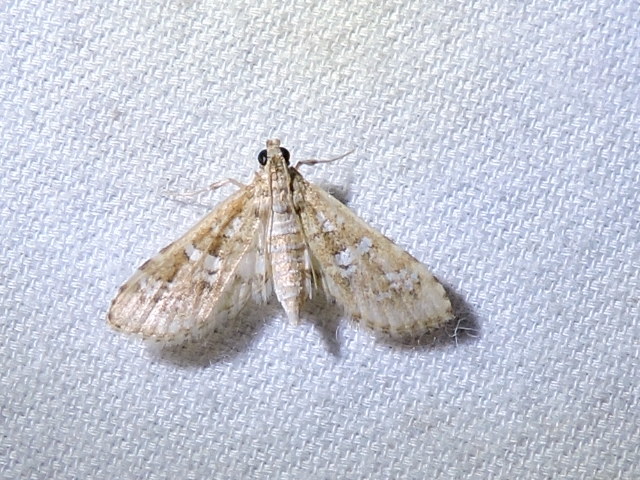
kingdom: Animalia
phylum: Arthropoda
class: Insecta
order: Lepidoptera
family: Crambidae
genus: Samea
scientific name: Samea multiplicalis
